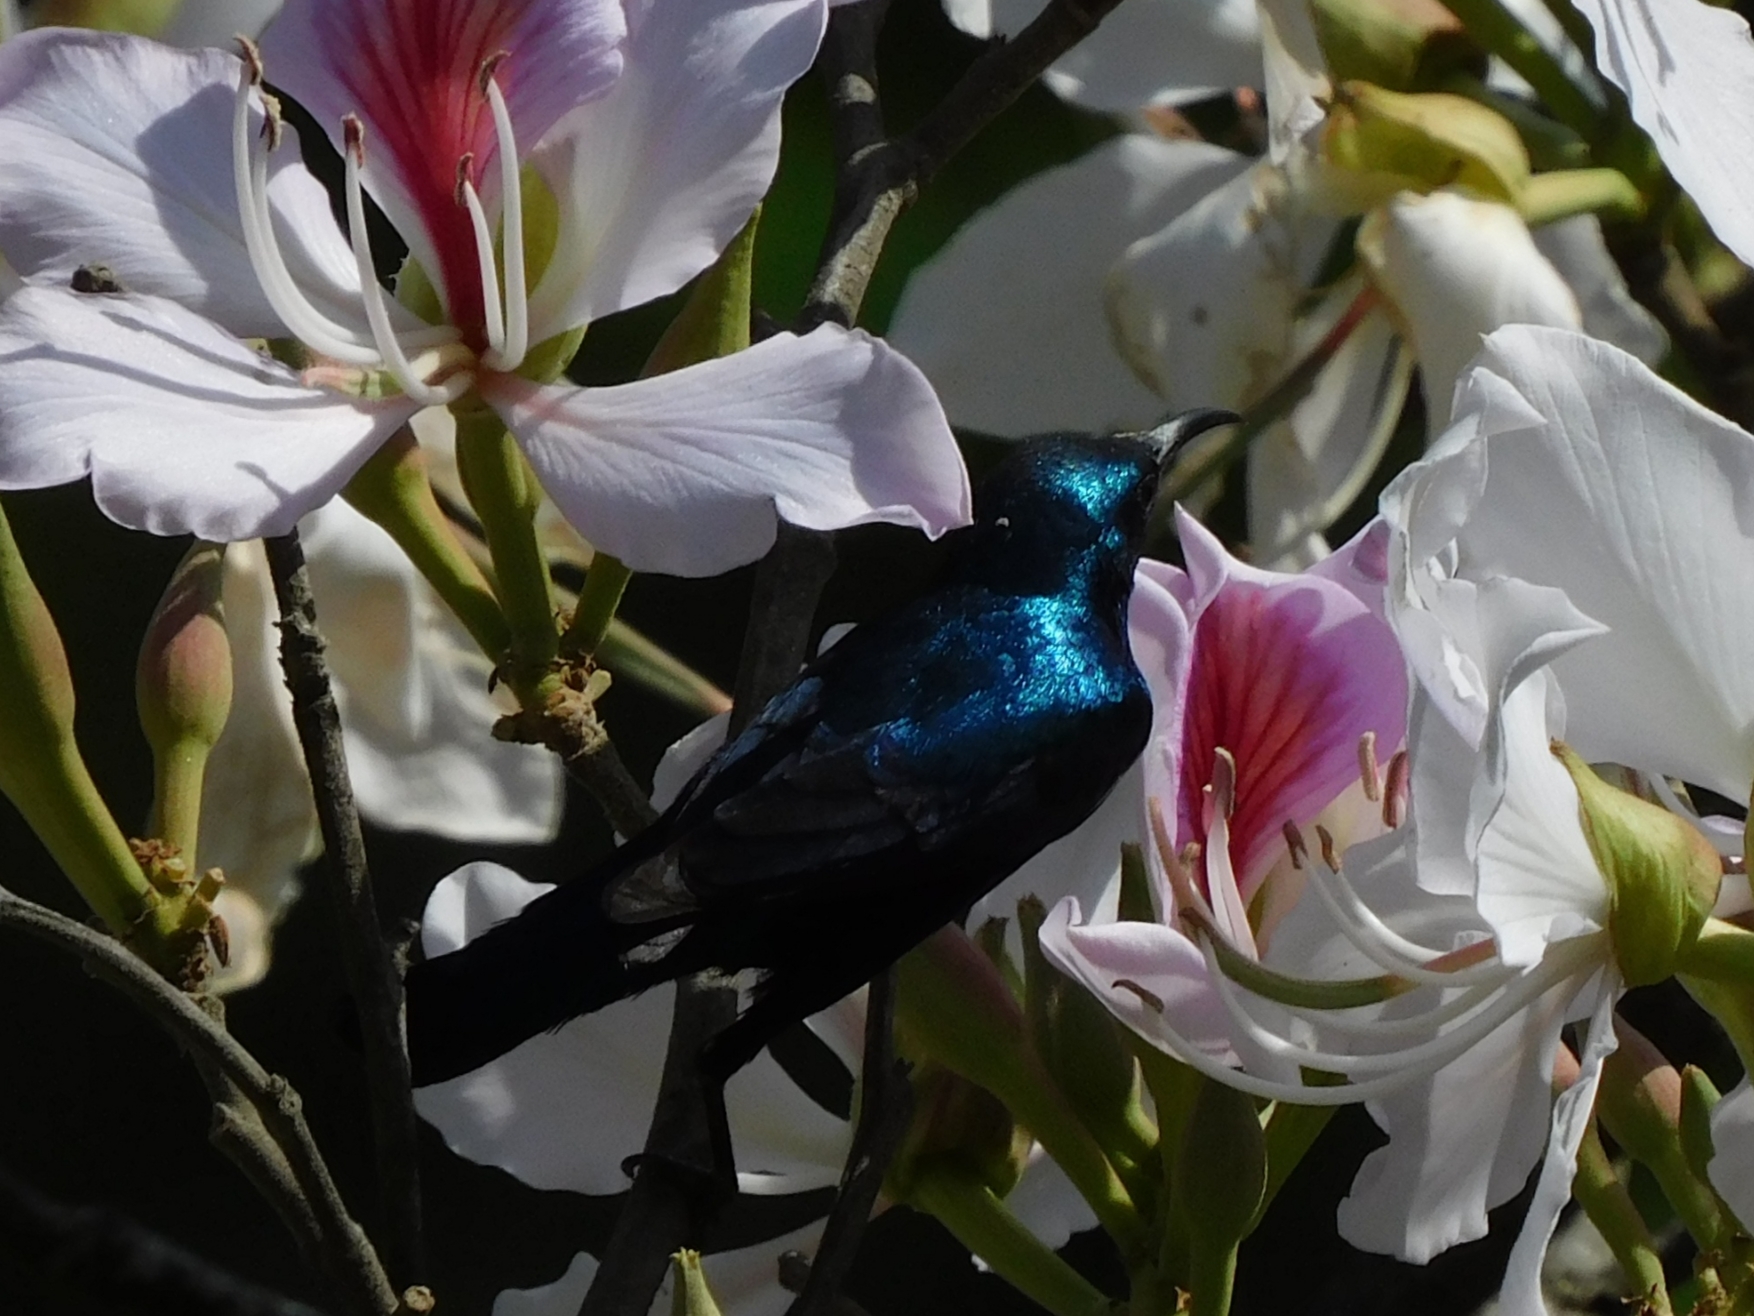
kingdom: Animalia
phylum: Chordata
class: Aves
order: Passeriformes
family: Nectariniidae
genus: Cinnyris
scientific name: Cinnyris asiaticus
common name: Purple sunbird
